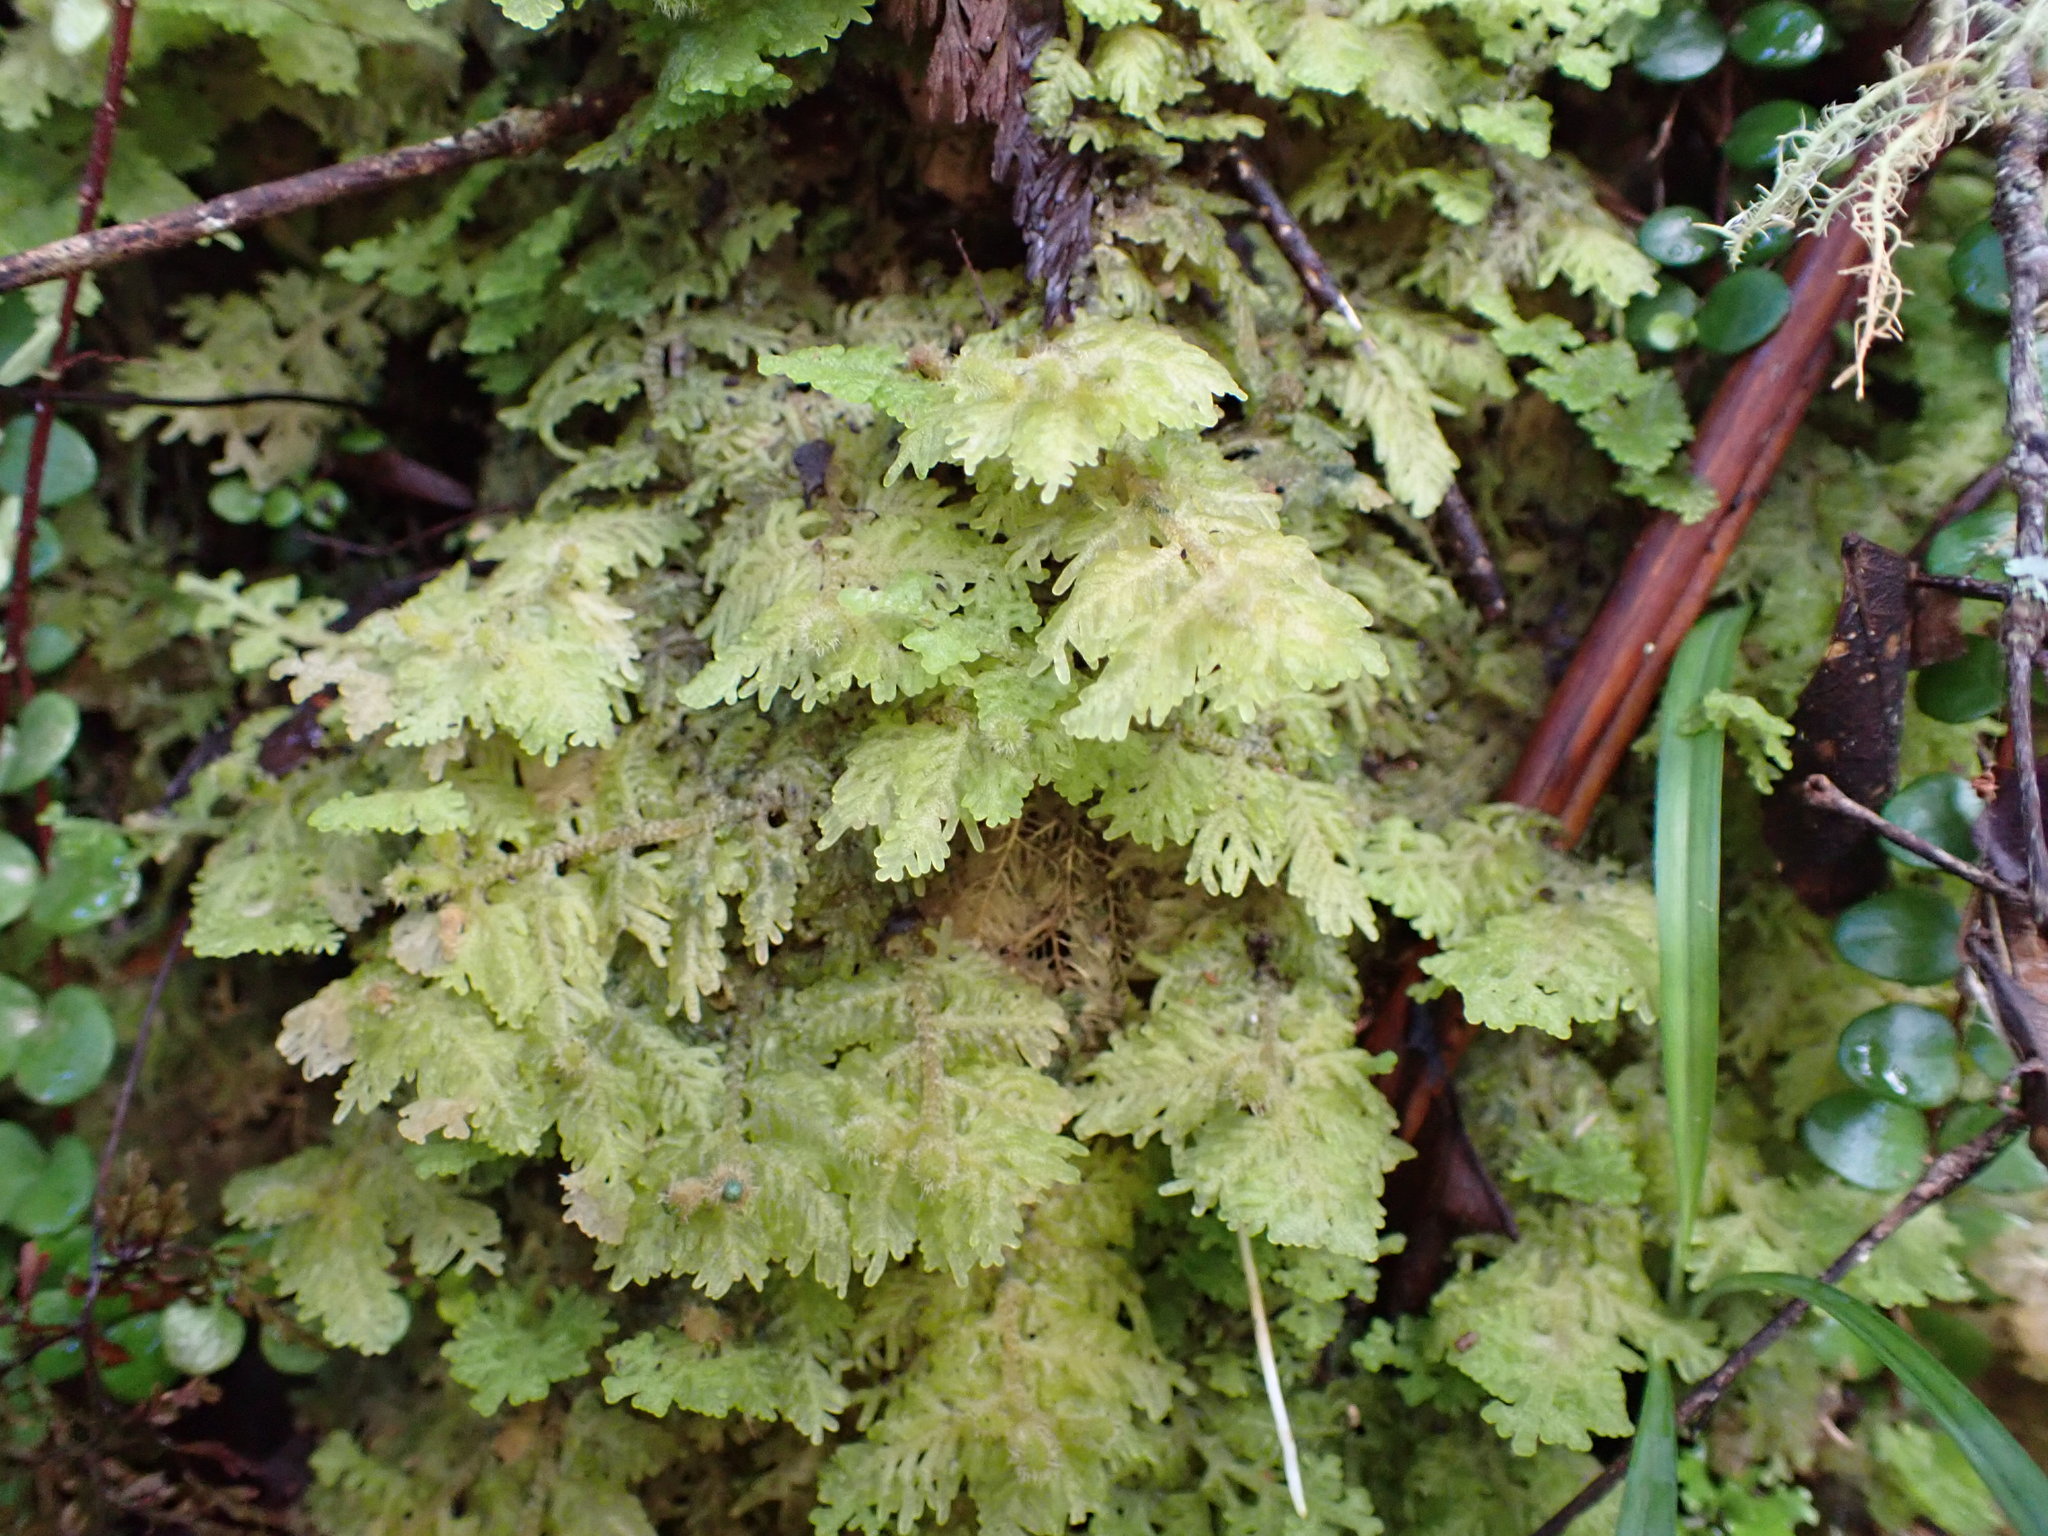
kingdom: Plantae
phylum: Marchantiophyta
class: Jungermanniopsida
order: Jungermanniales
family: Trichocoleaceae
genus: Trichocolea
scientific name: Trichocolea mollissima
